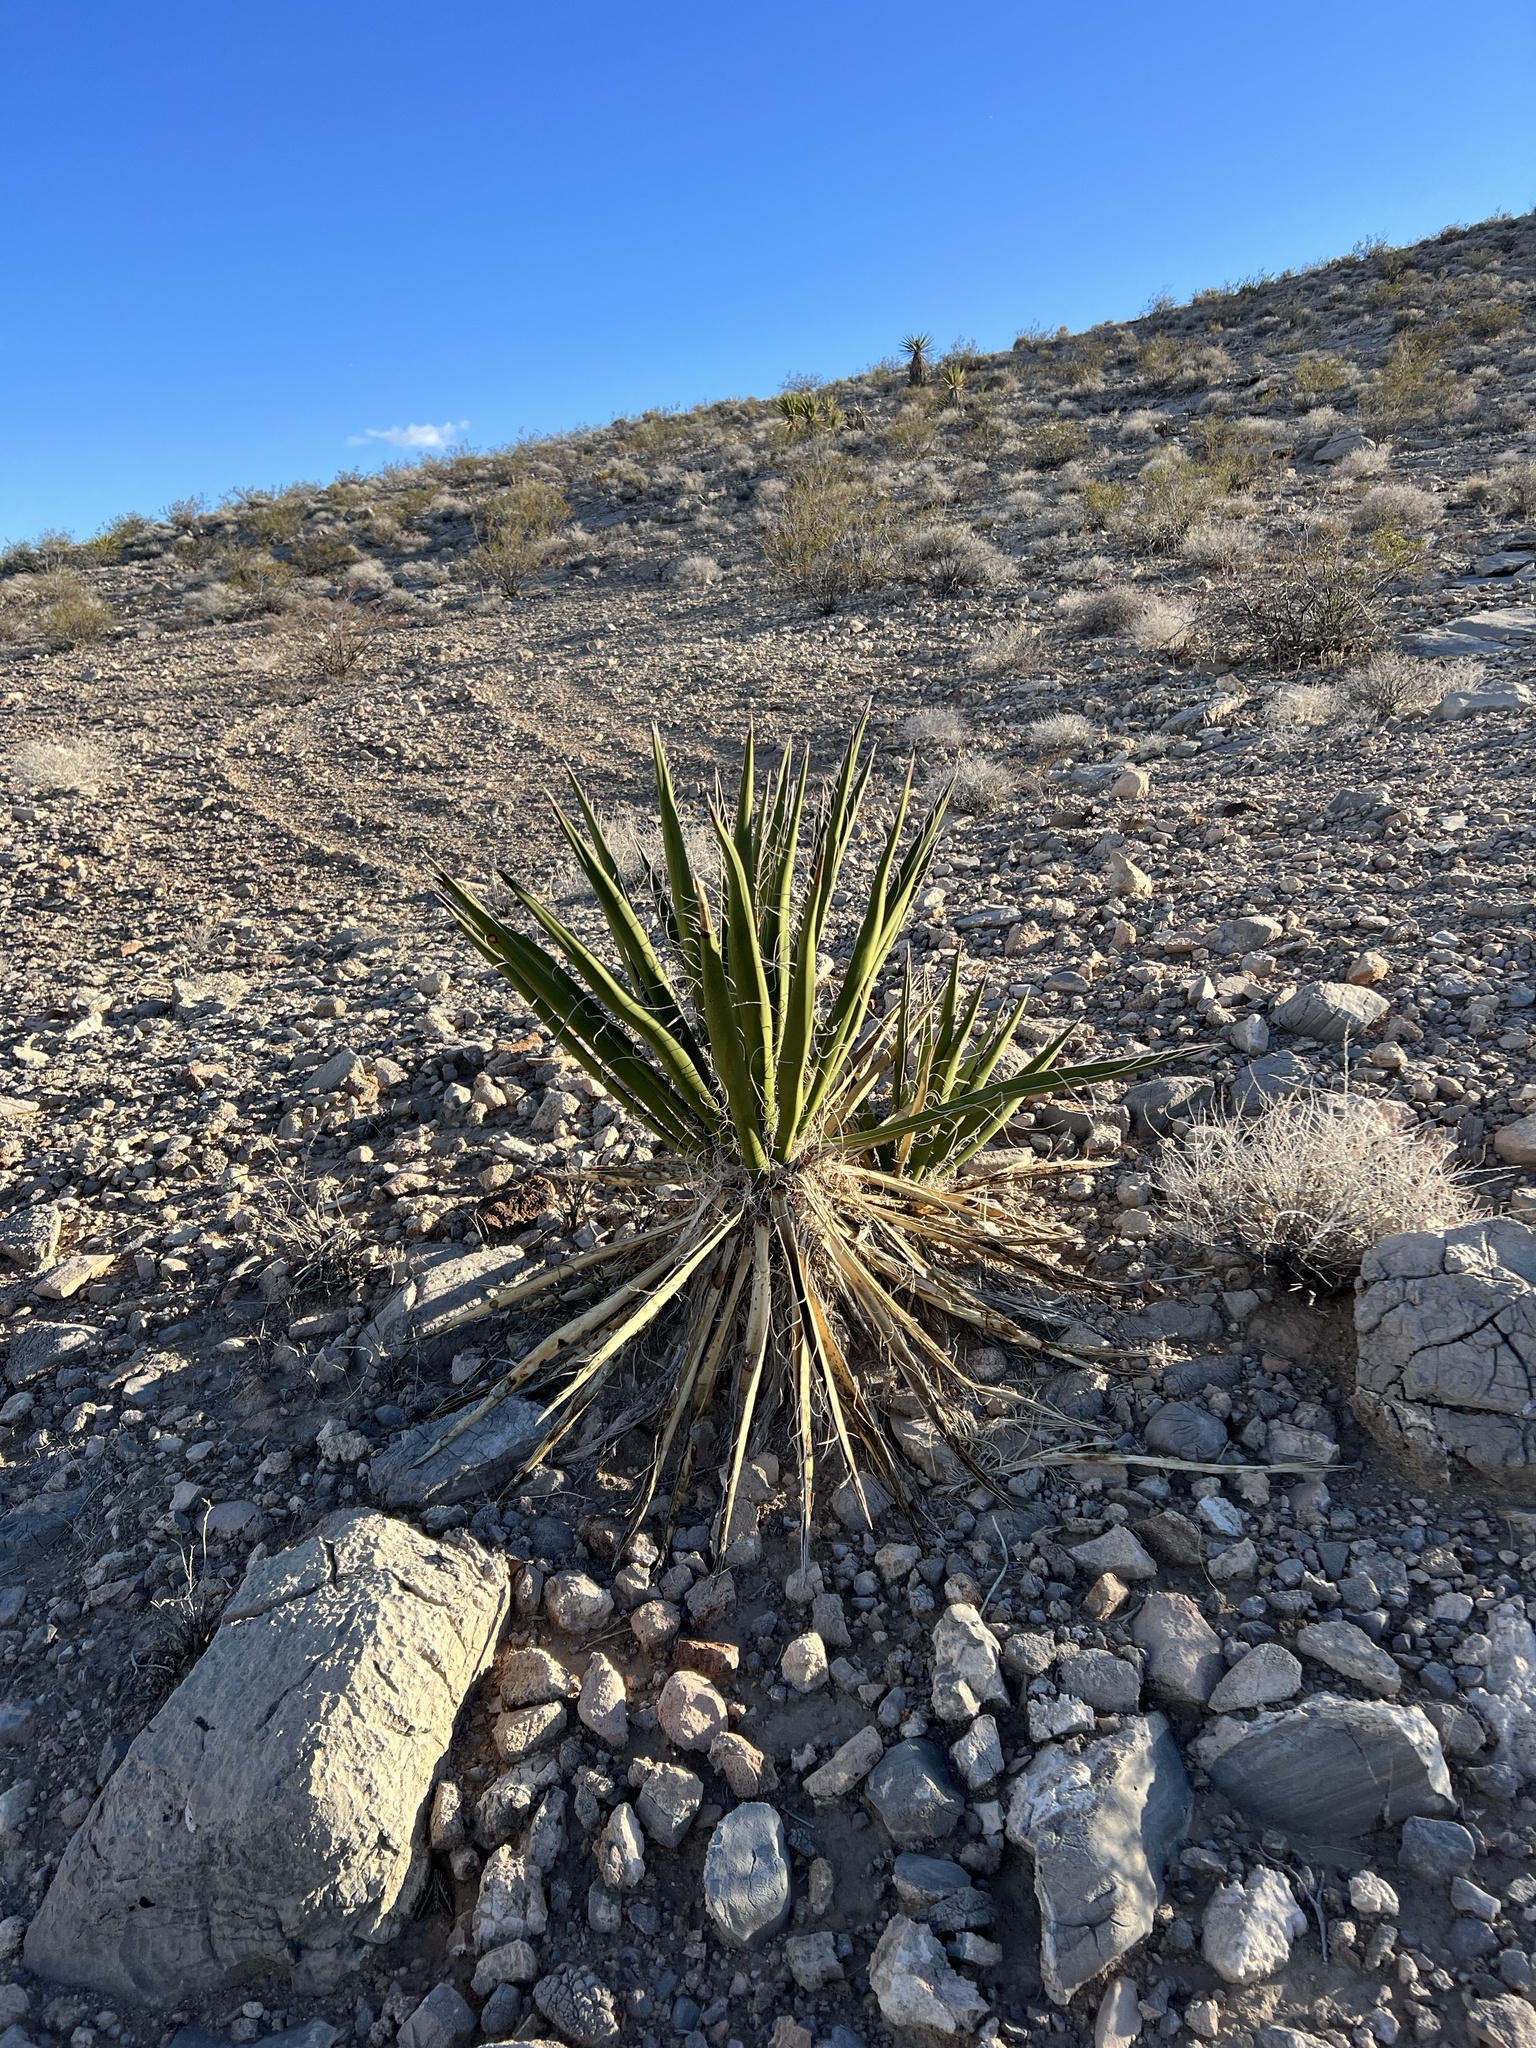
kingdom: Plantae
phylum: Tracheophyta
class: Liliopsida
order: Asparagales
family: Asparagaceae
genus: Yucca
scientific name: Yucca schidigera
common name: Mojave yucca
